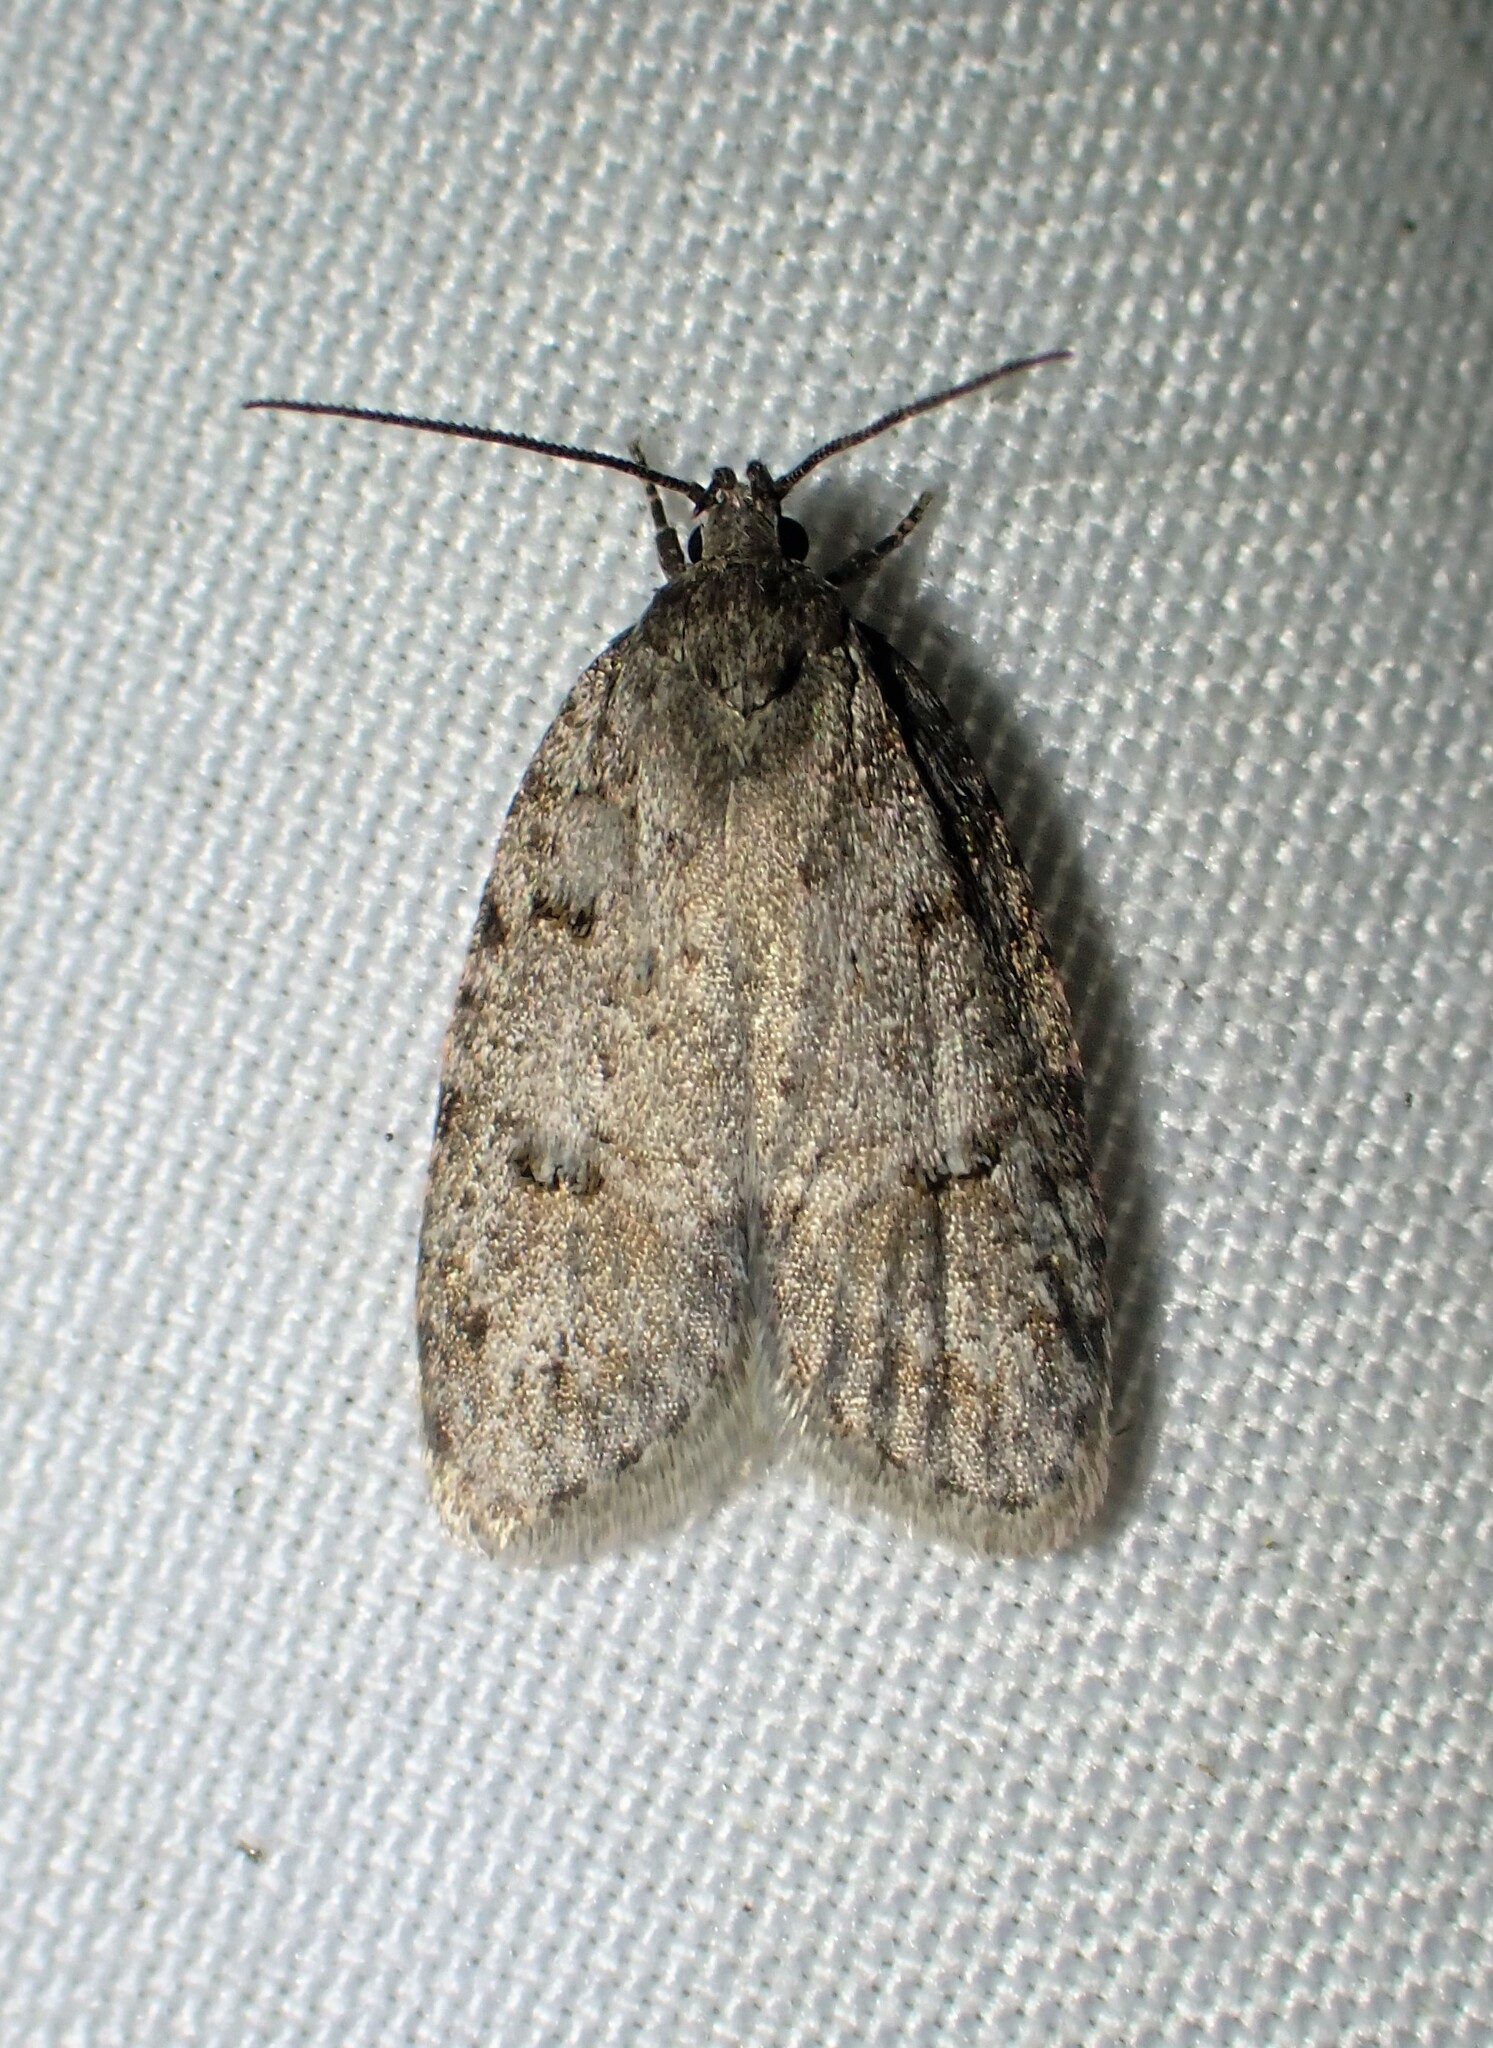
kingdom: Animalia
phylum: Arthropoda
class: Insecta
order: Lepidoptera
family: Depressariidae
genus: Bibarrambla
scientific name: Bibarrambla allenella
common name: Bog bibarrambla moth
